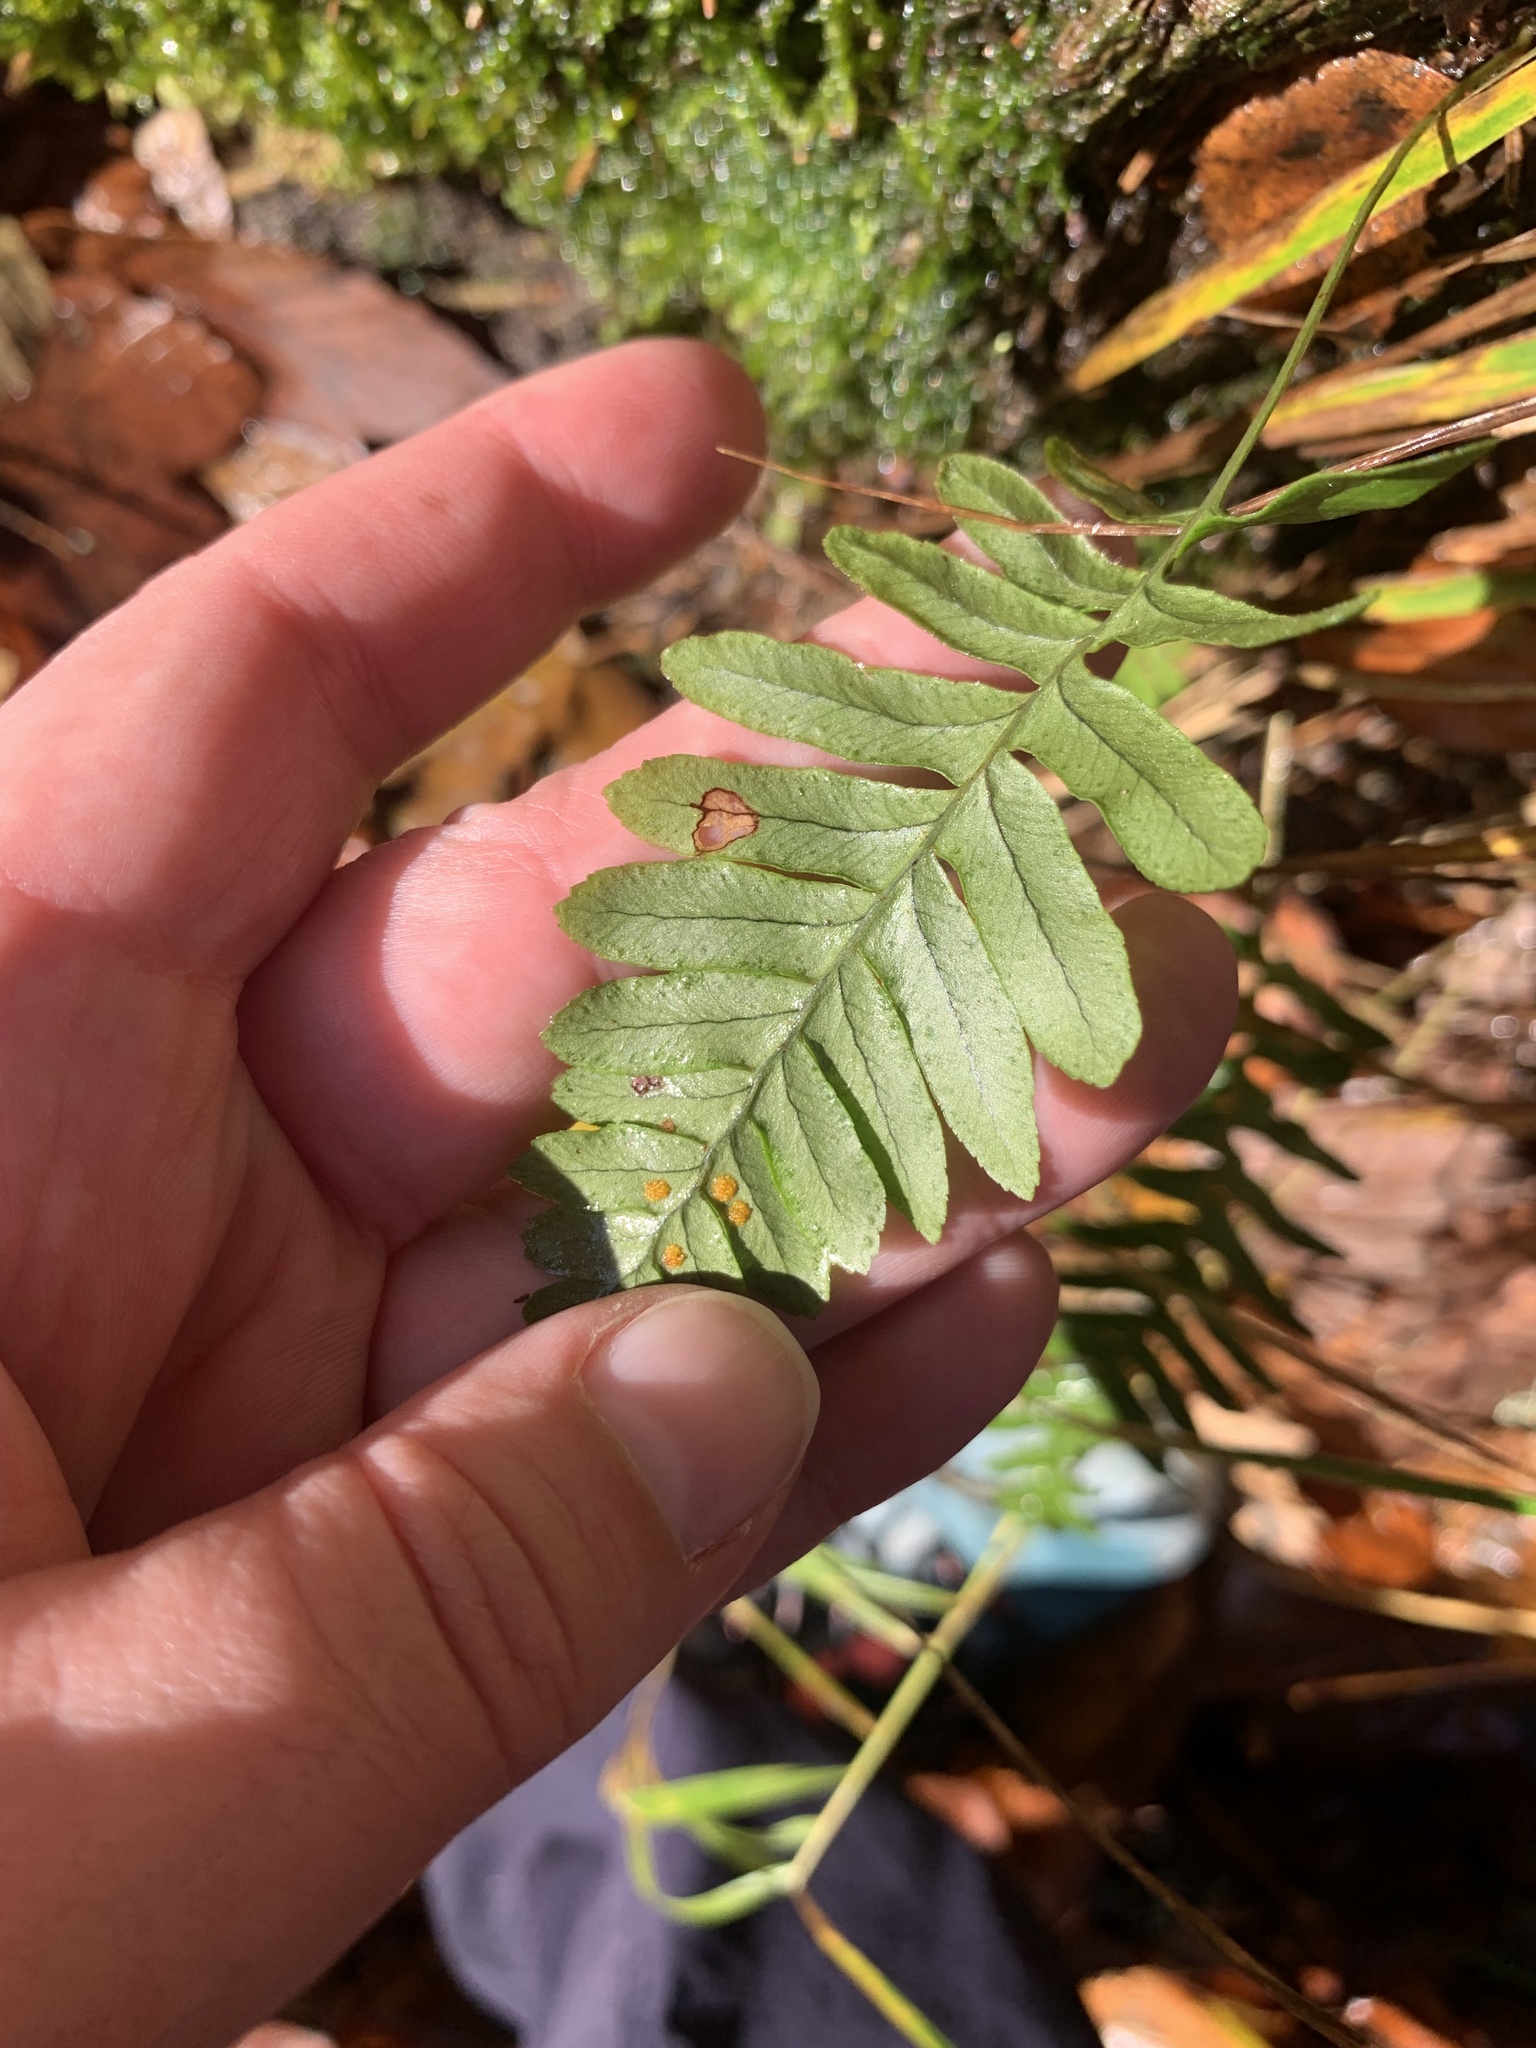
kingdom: Plantae
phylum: Tracheophyta
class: Polypodiopsida
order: Polypodiales
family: Polypodiaceae
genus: Polypodium
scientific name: Polypodium vulgare
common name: Common polypody
